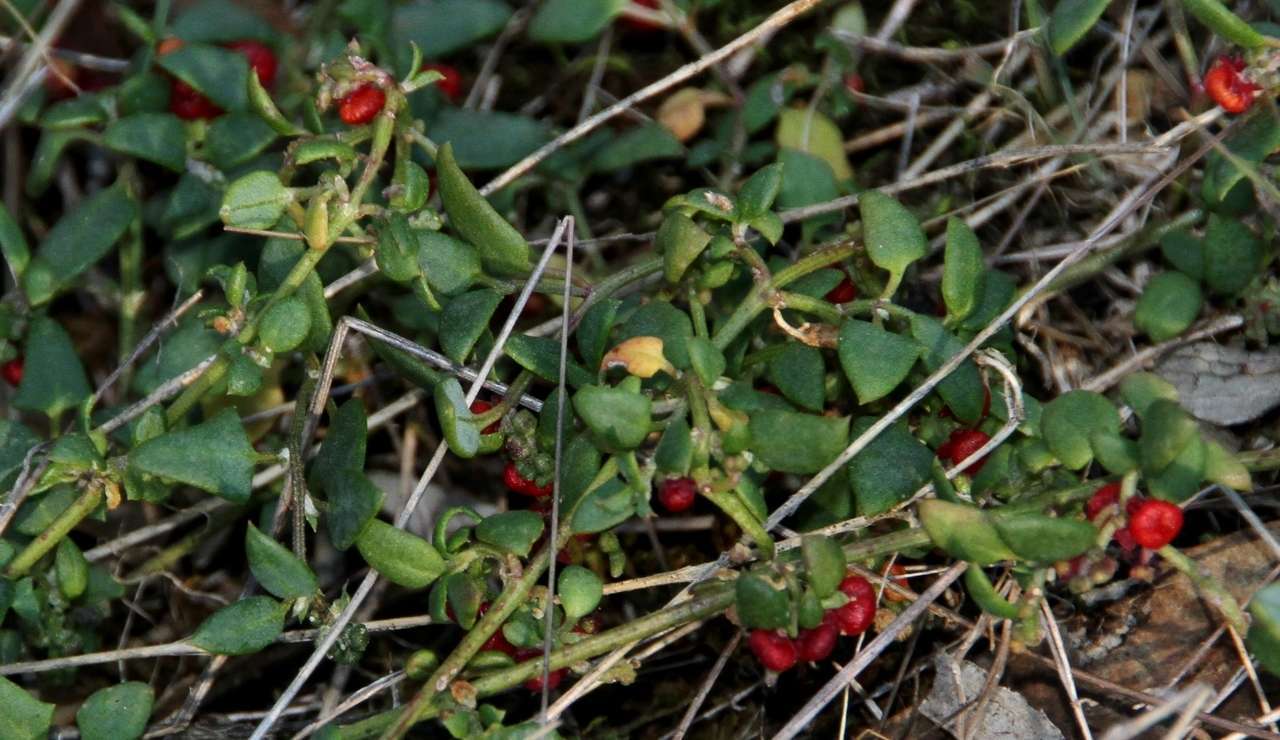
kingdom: Plantae
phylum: Tracheophyta
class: Magnoliopsida
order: Caryophyllales
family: Amaranthaceae
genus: Chenopodium
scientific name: Chenopodium nutans
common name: Climbing-saltbush
